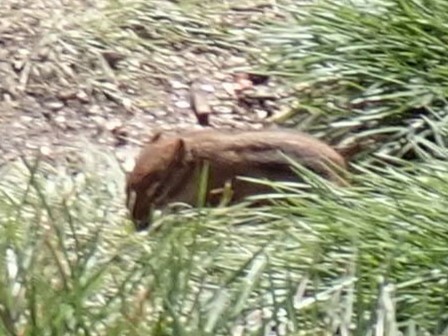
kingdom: Animalia
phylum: Chordata
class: Mammalia
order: Rodentia
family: Sciuridae
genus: Tamias
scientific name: Tamias striatus
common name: Eastern chipmunk
